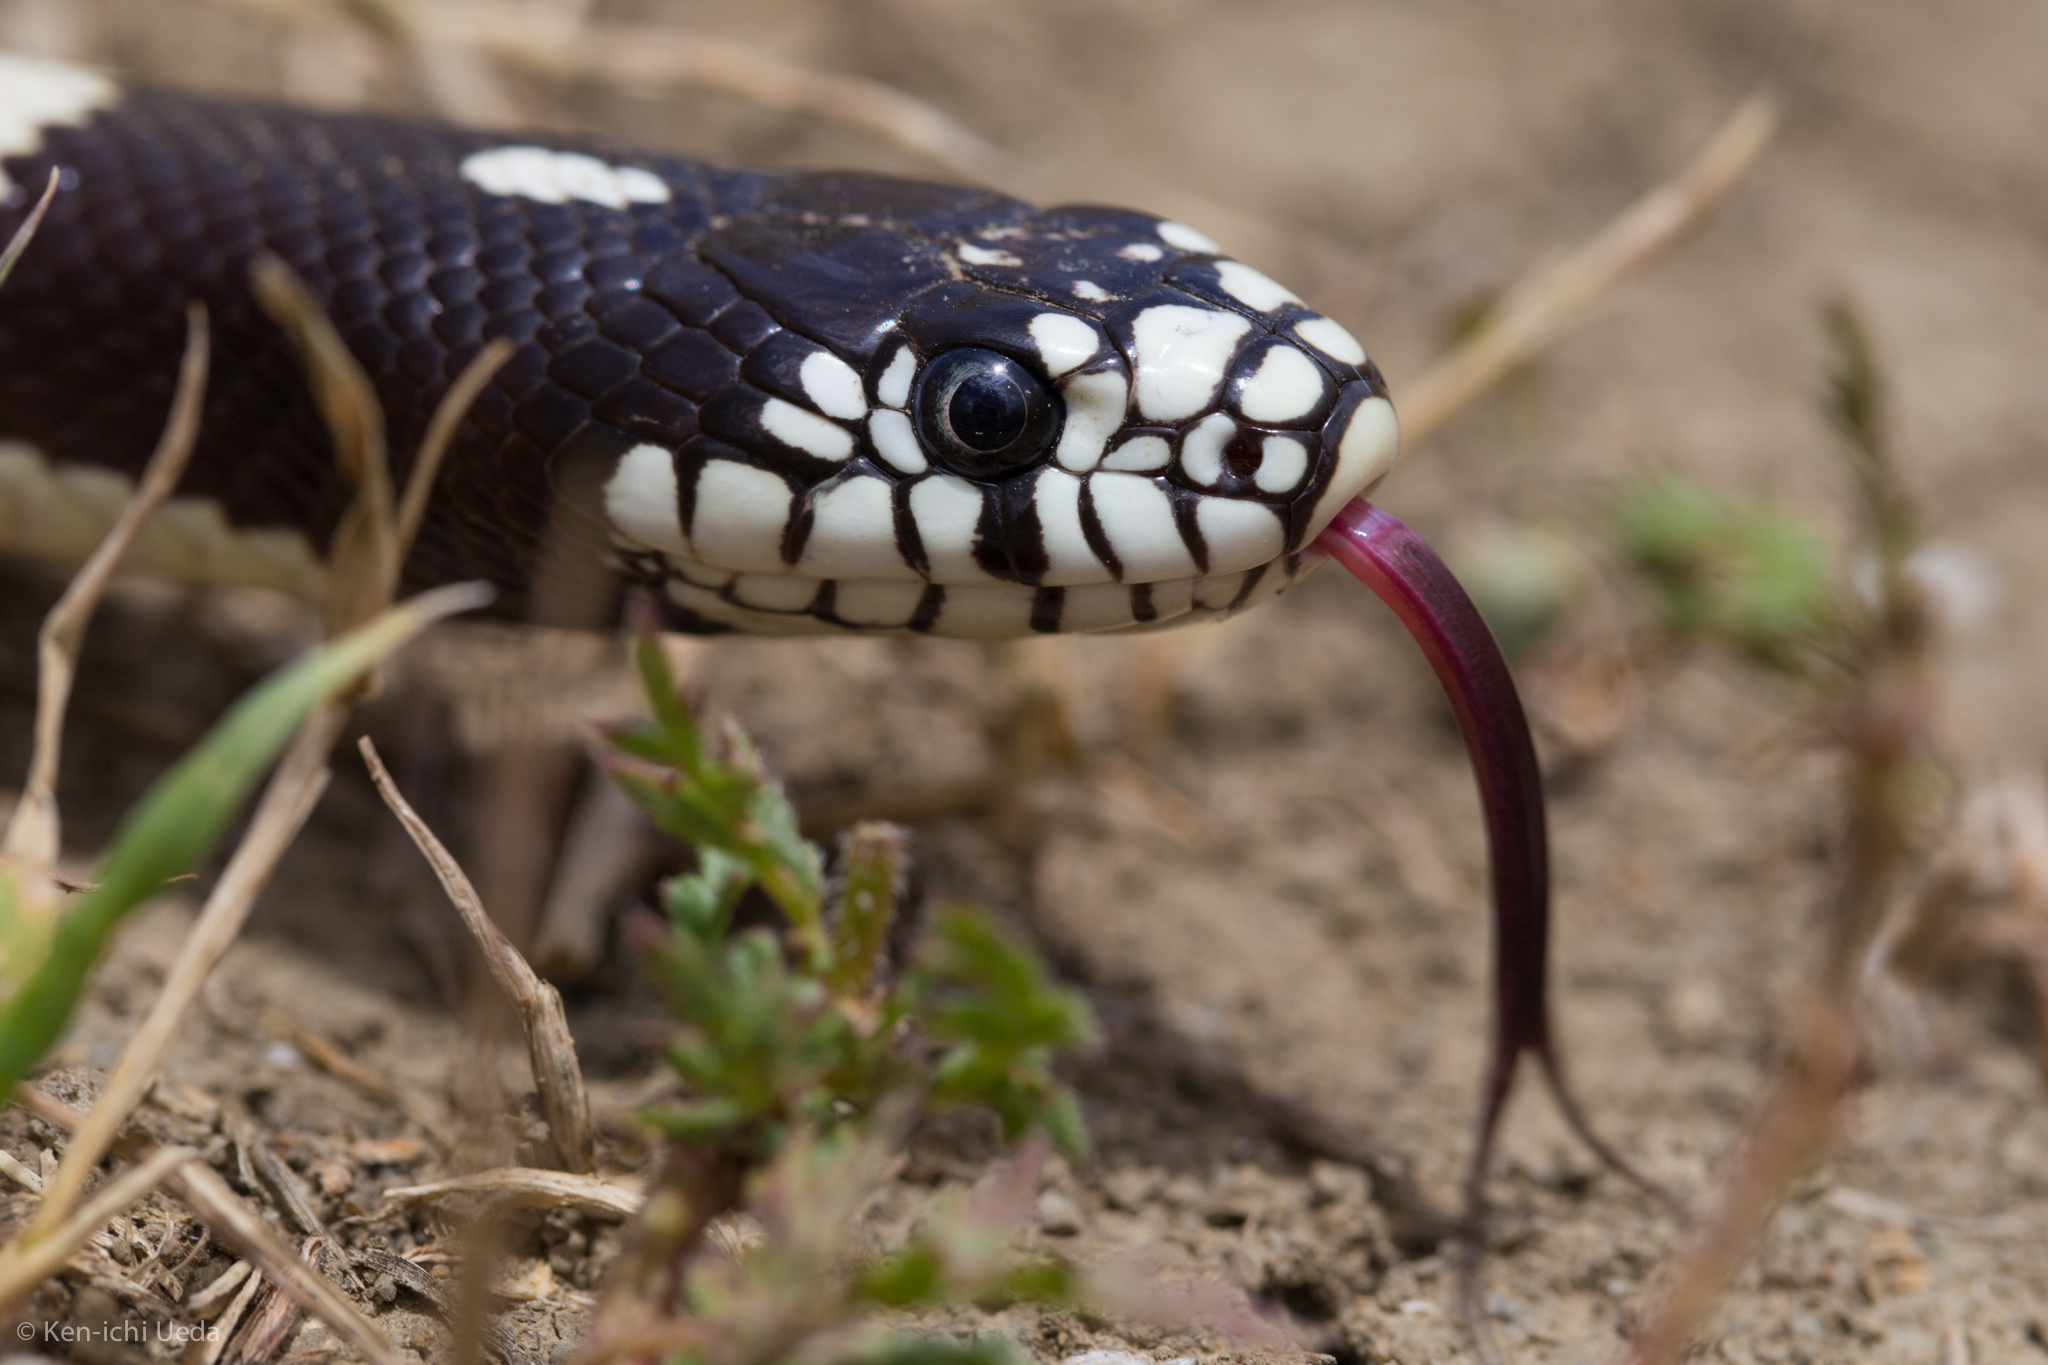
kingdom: Animalia
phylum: Chordata
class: Squamata
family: Colubridae
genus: Lampropeltis
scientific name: Lampropeltis californiae
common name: California kingsnake
